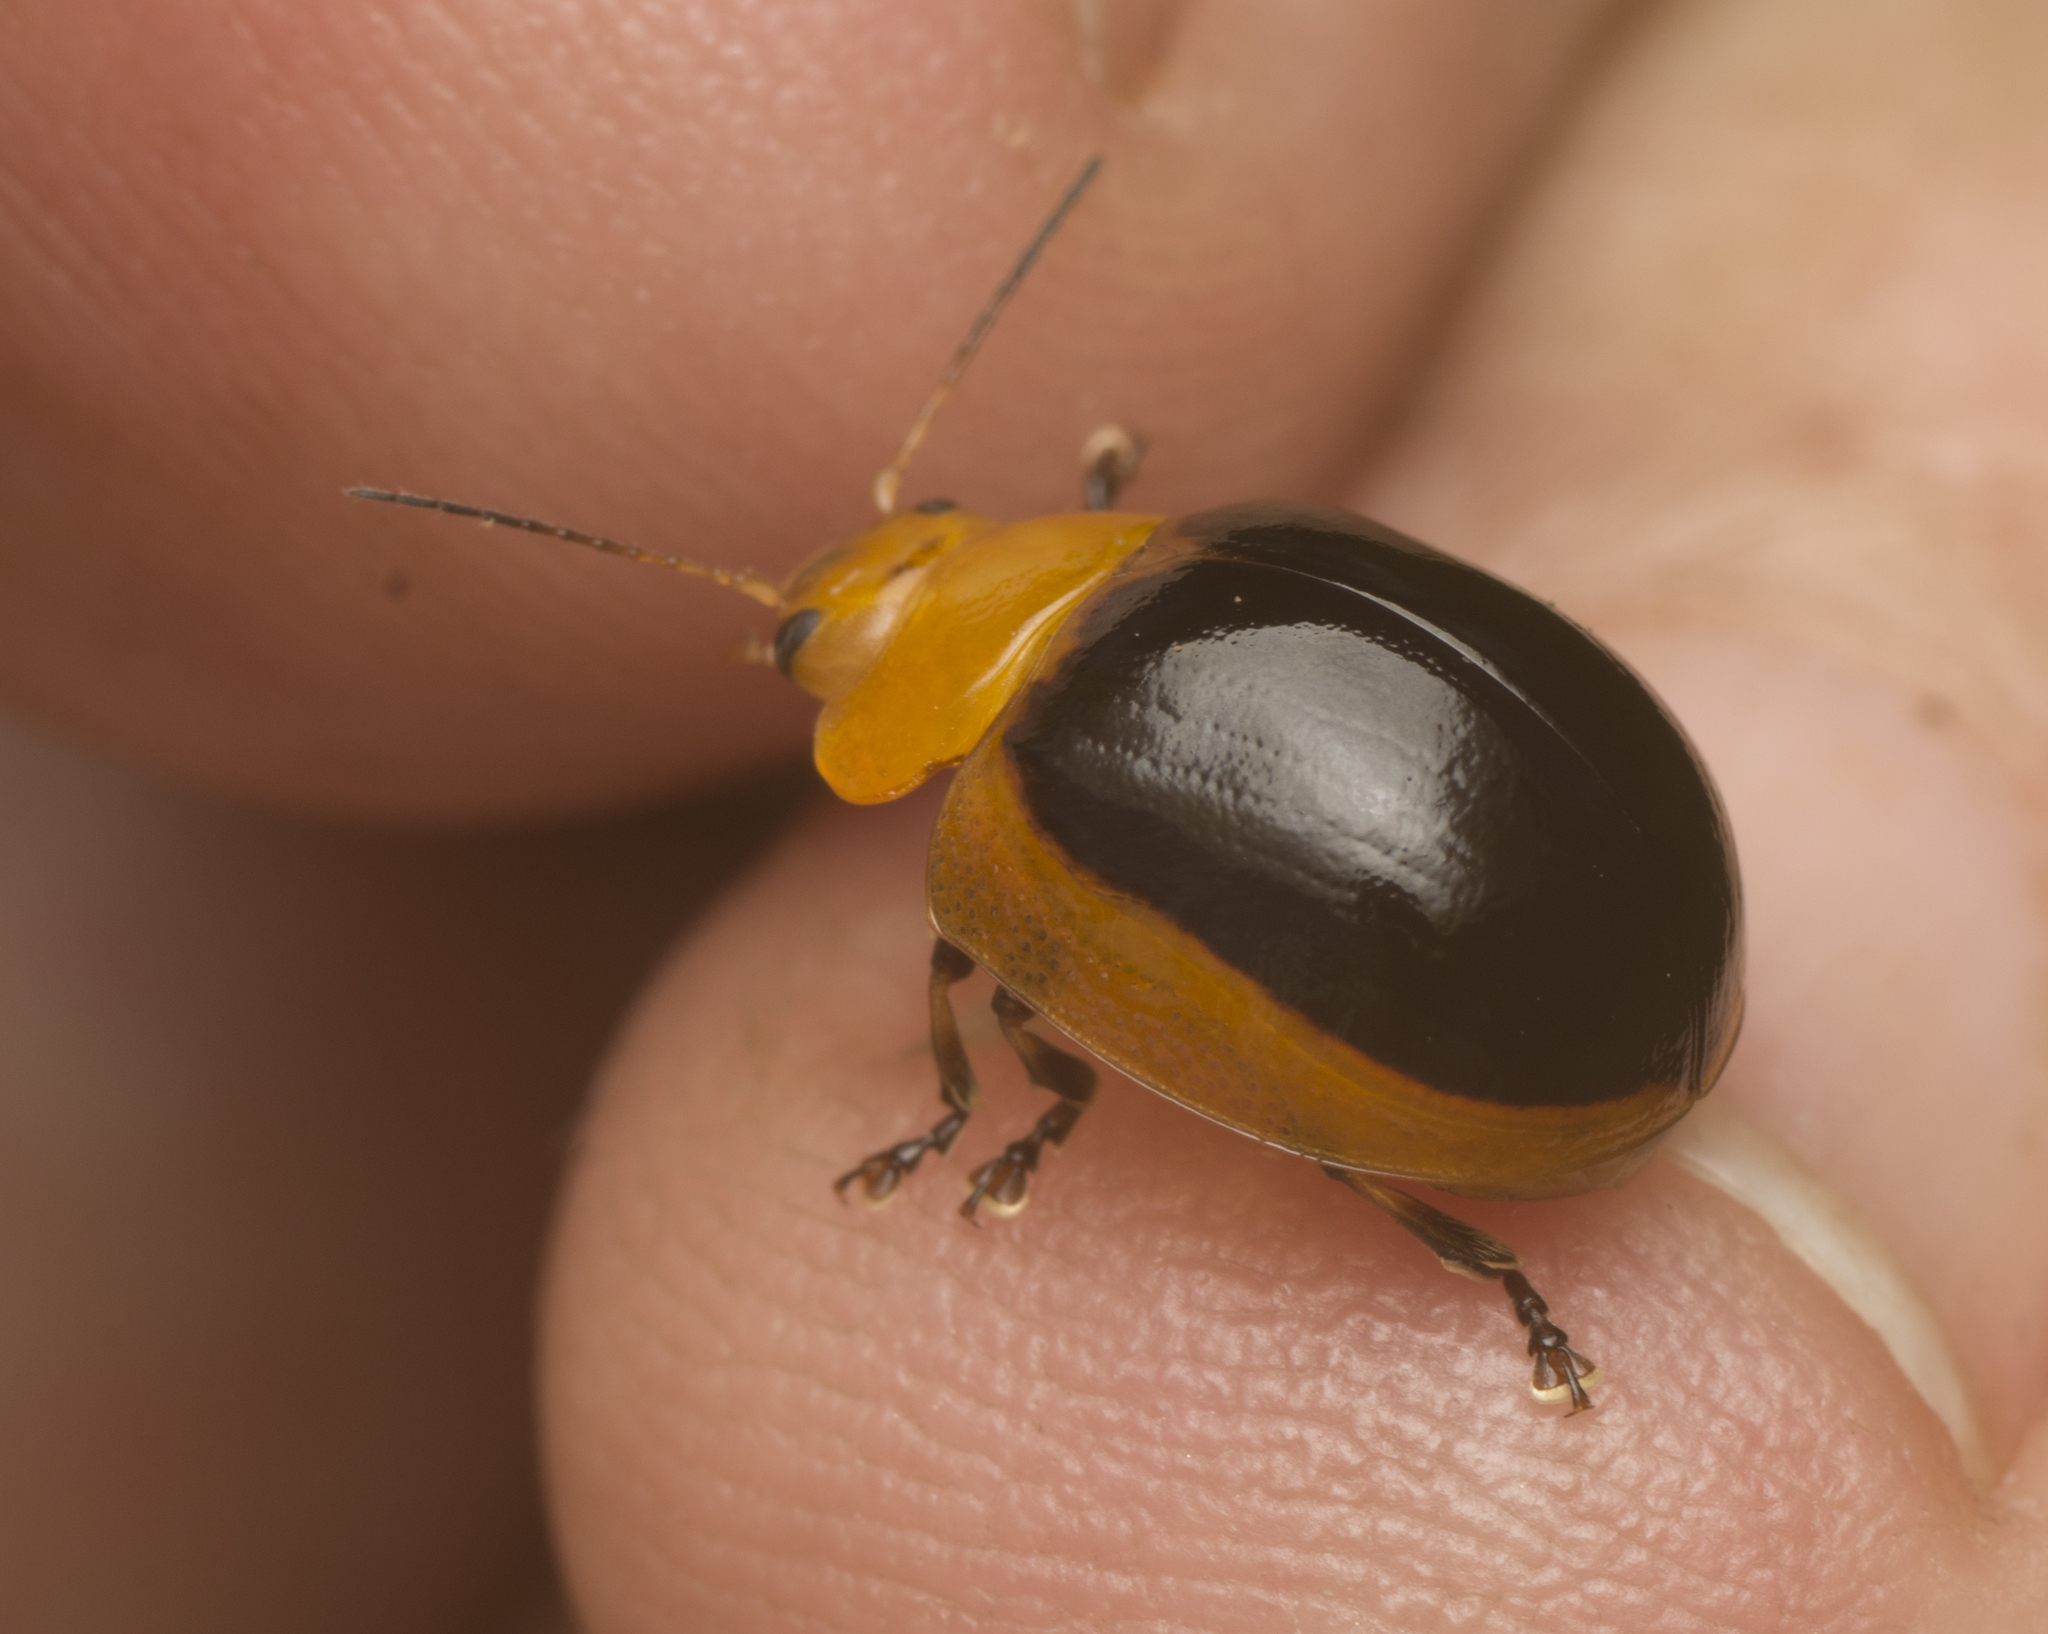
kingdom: Animalia
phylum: Arthropoda
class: Insecta
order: Coleoptera
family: Chrysomelidae
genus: Paropsisterna
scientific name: Paropsisterna cloelia
